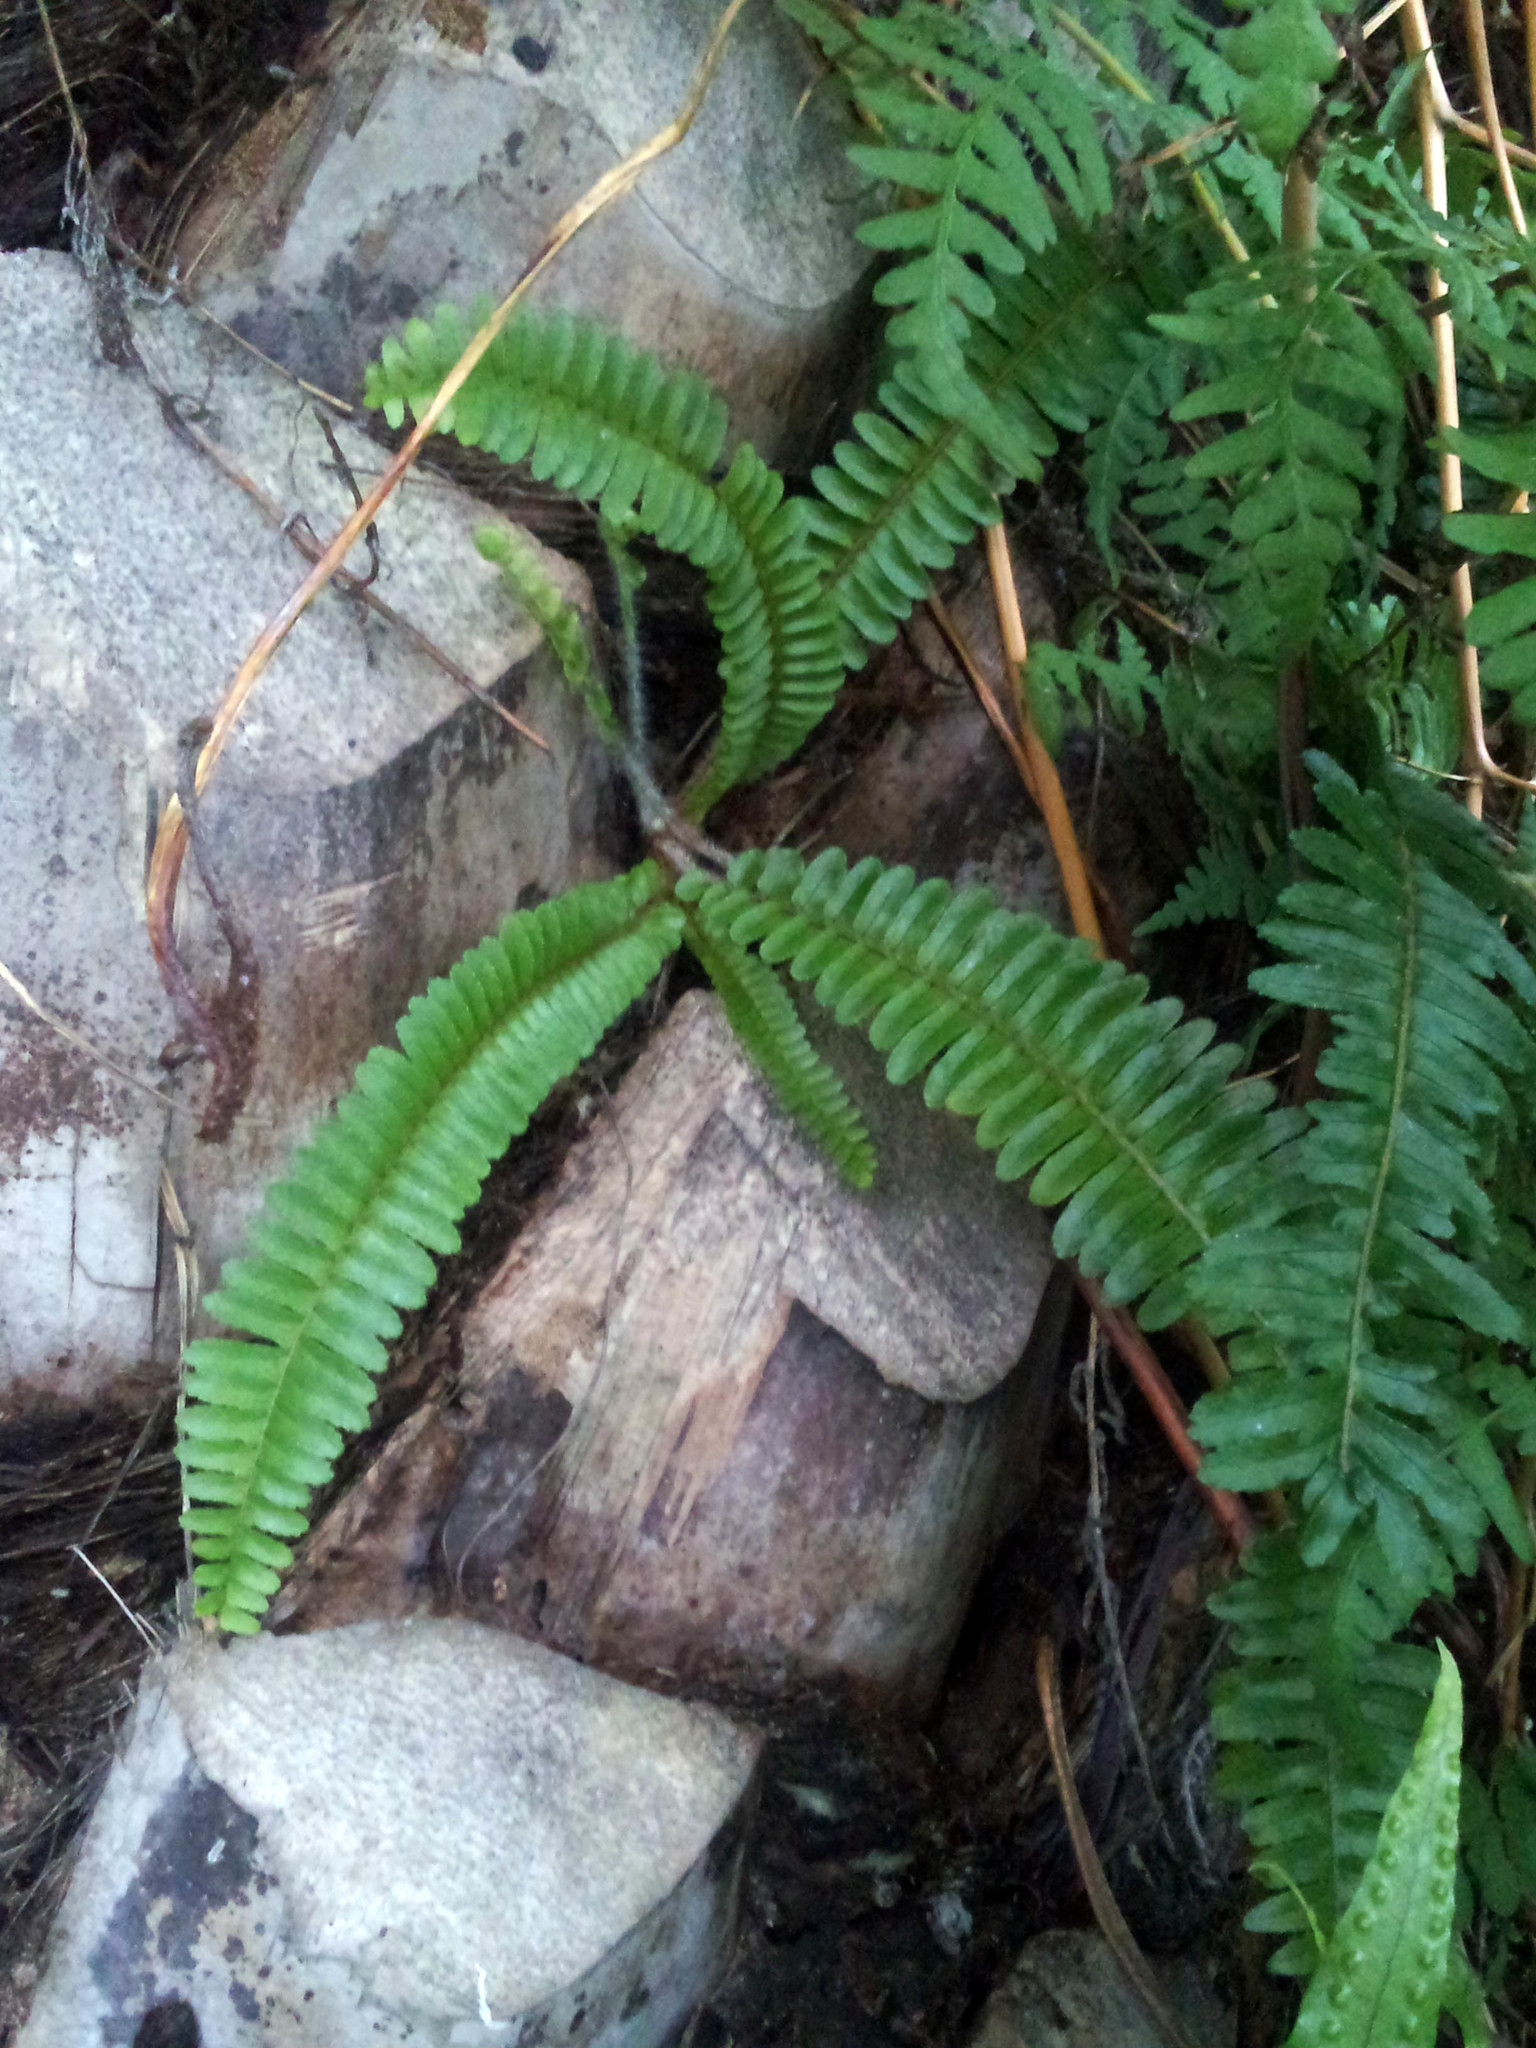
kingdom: Plantae
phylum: Tracheophyta
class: Polypodiopsida
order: Polypodiales
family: Nephrolepidaceae
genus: Nephrolepis
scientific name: Nephrolepis cordifolia
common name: Narrow swordfern
